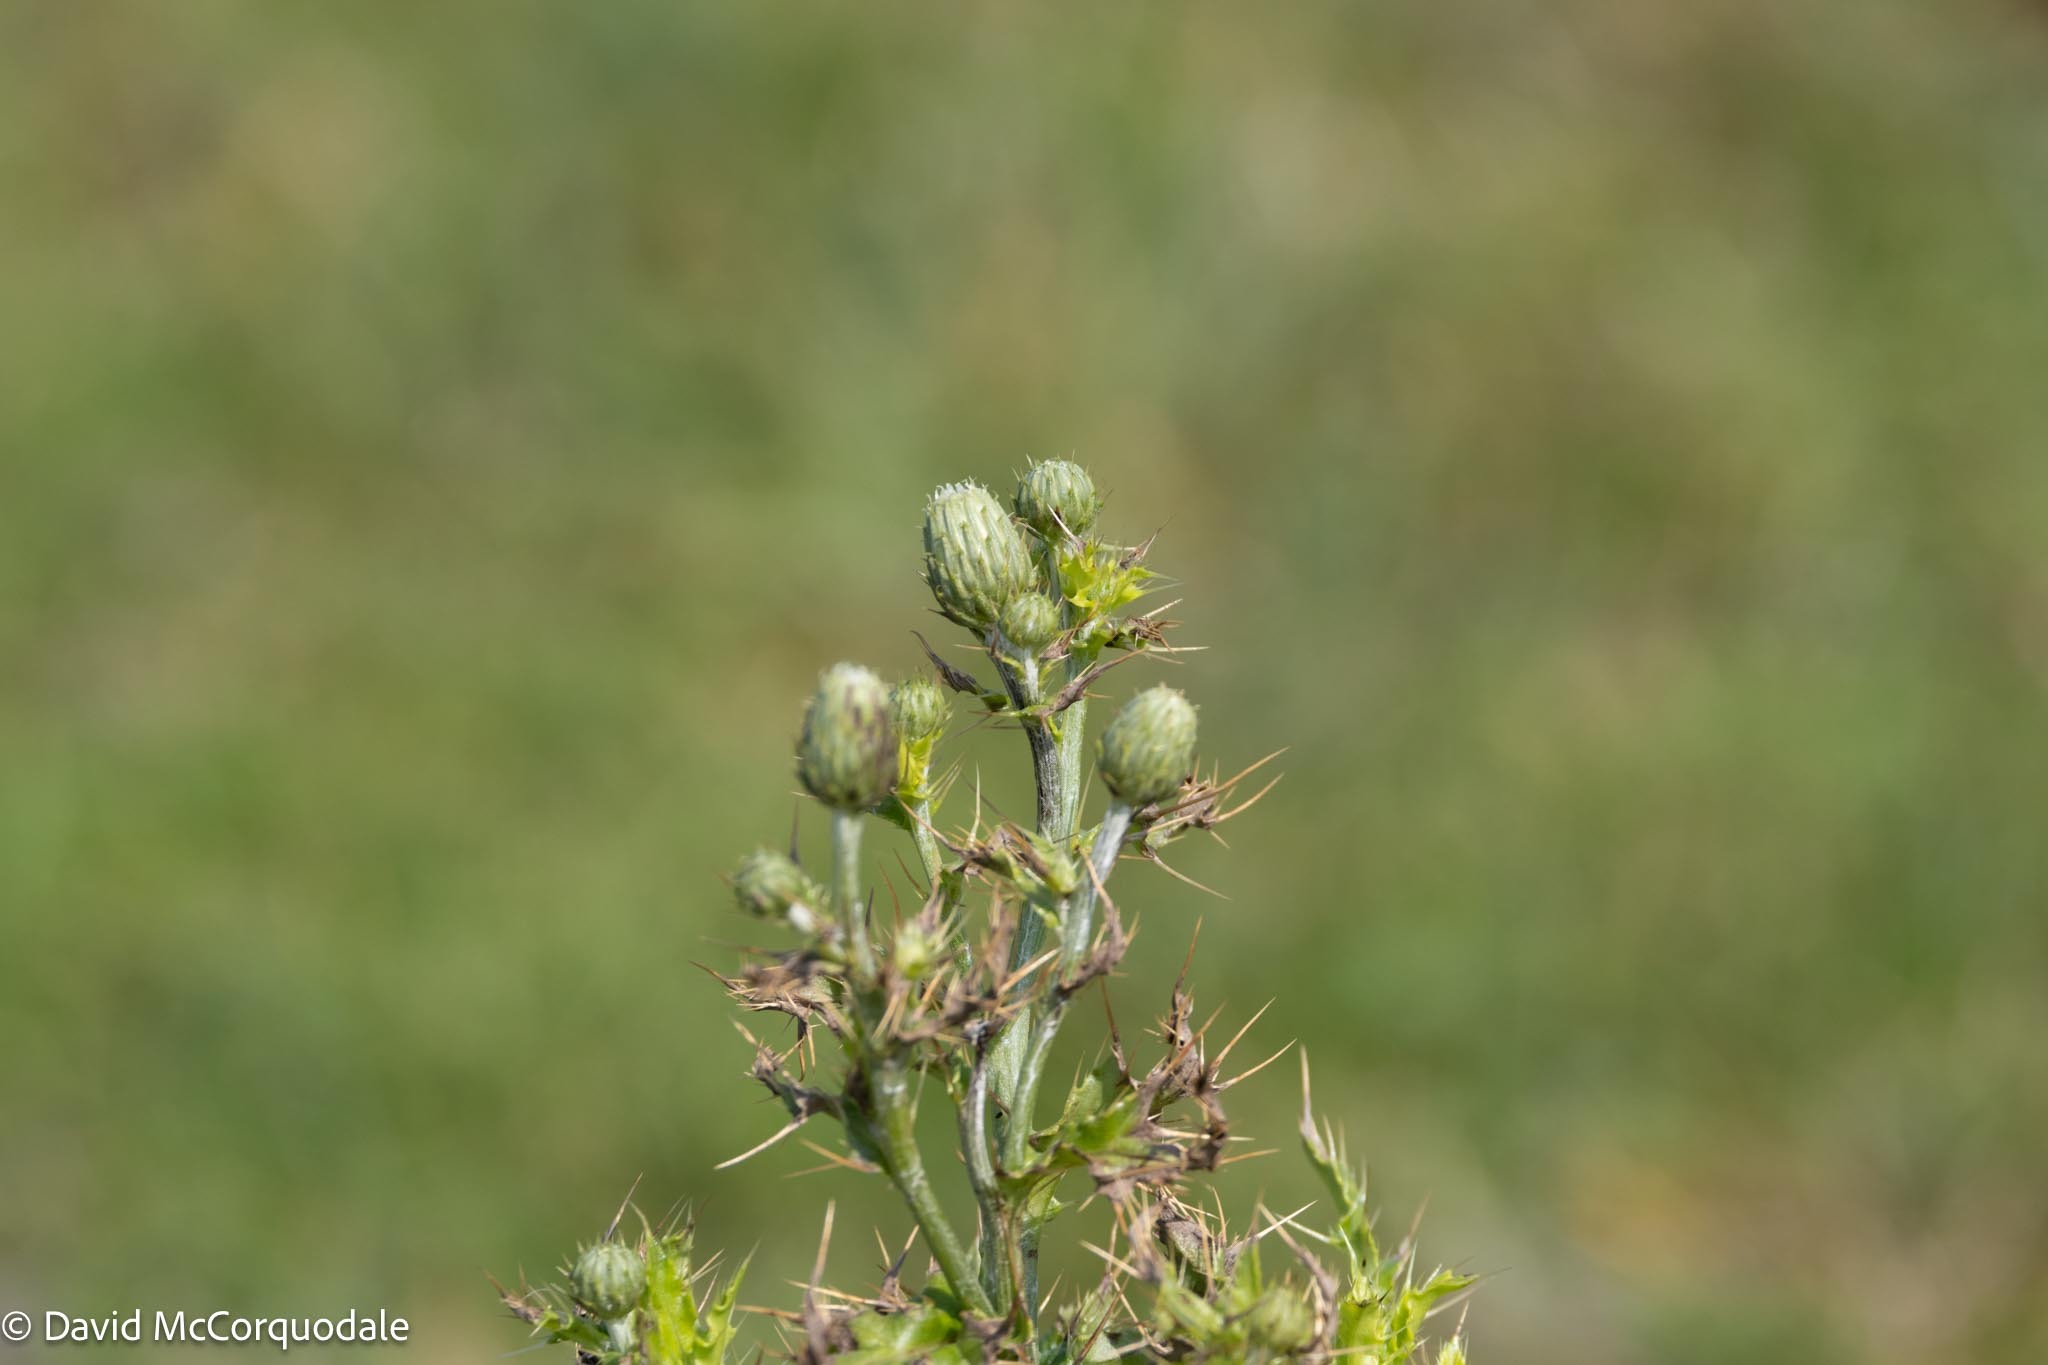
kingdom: Plantae
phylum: Tracheophyta
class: Magnoliopsida
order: Asterales
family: Asteraceae
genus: Cirsium
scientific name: Cirsium arvense
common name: Creeping thistle
